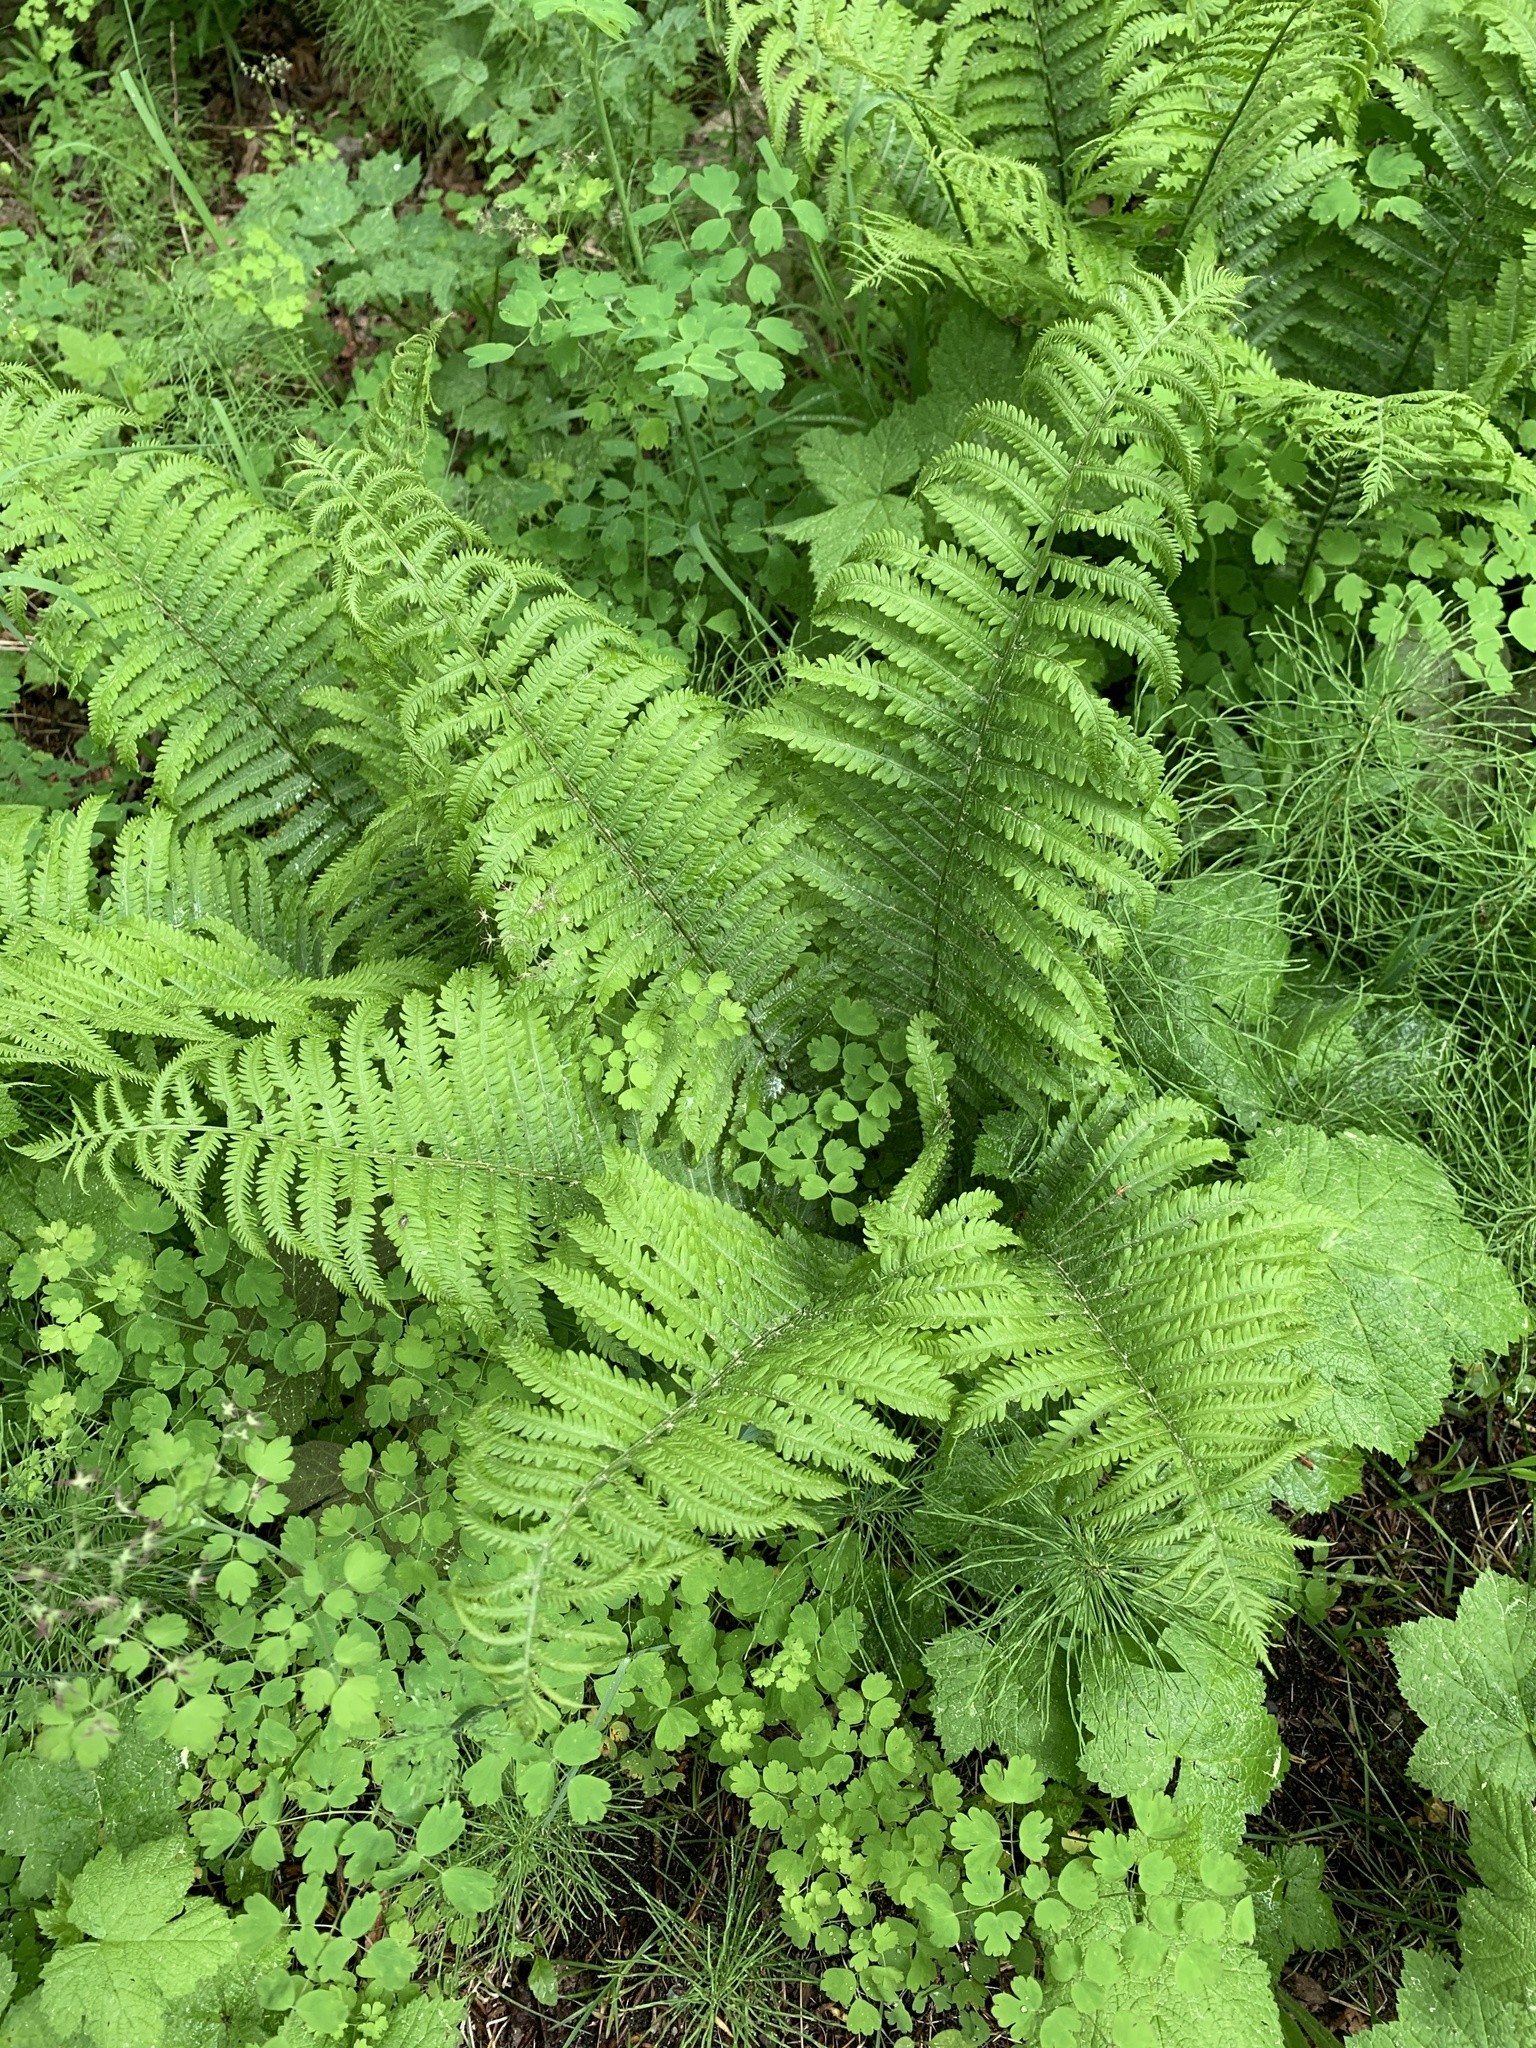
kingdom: Plantae
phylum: Tracheophyta
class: Polypodiopsida
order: Polypodiales
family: Onocleaceae
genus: Matteuccia
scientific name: Matteuccia struthiopteris
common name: Ostrich fern
